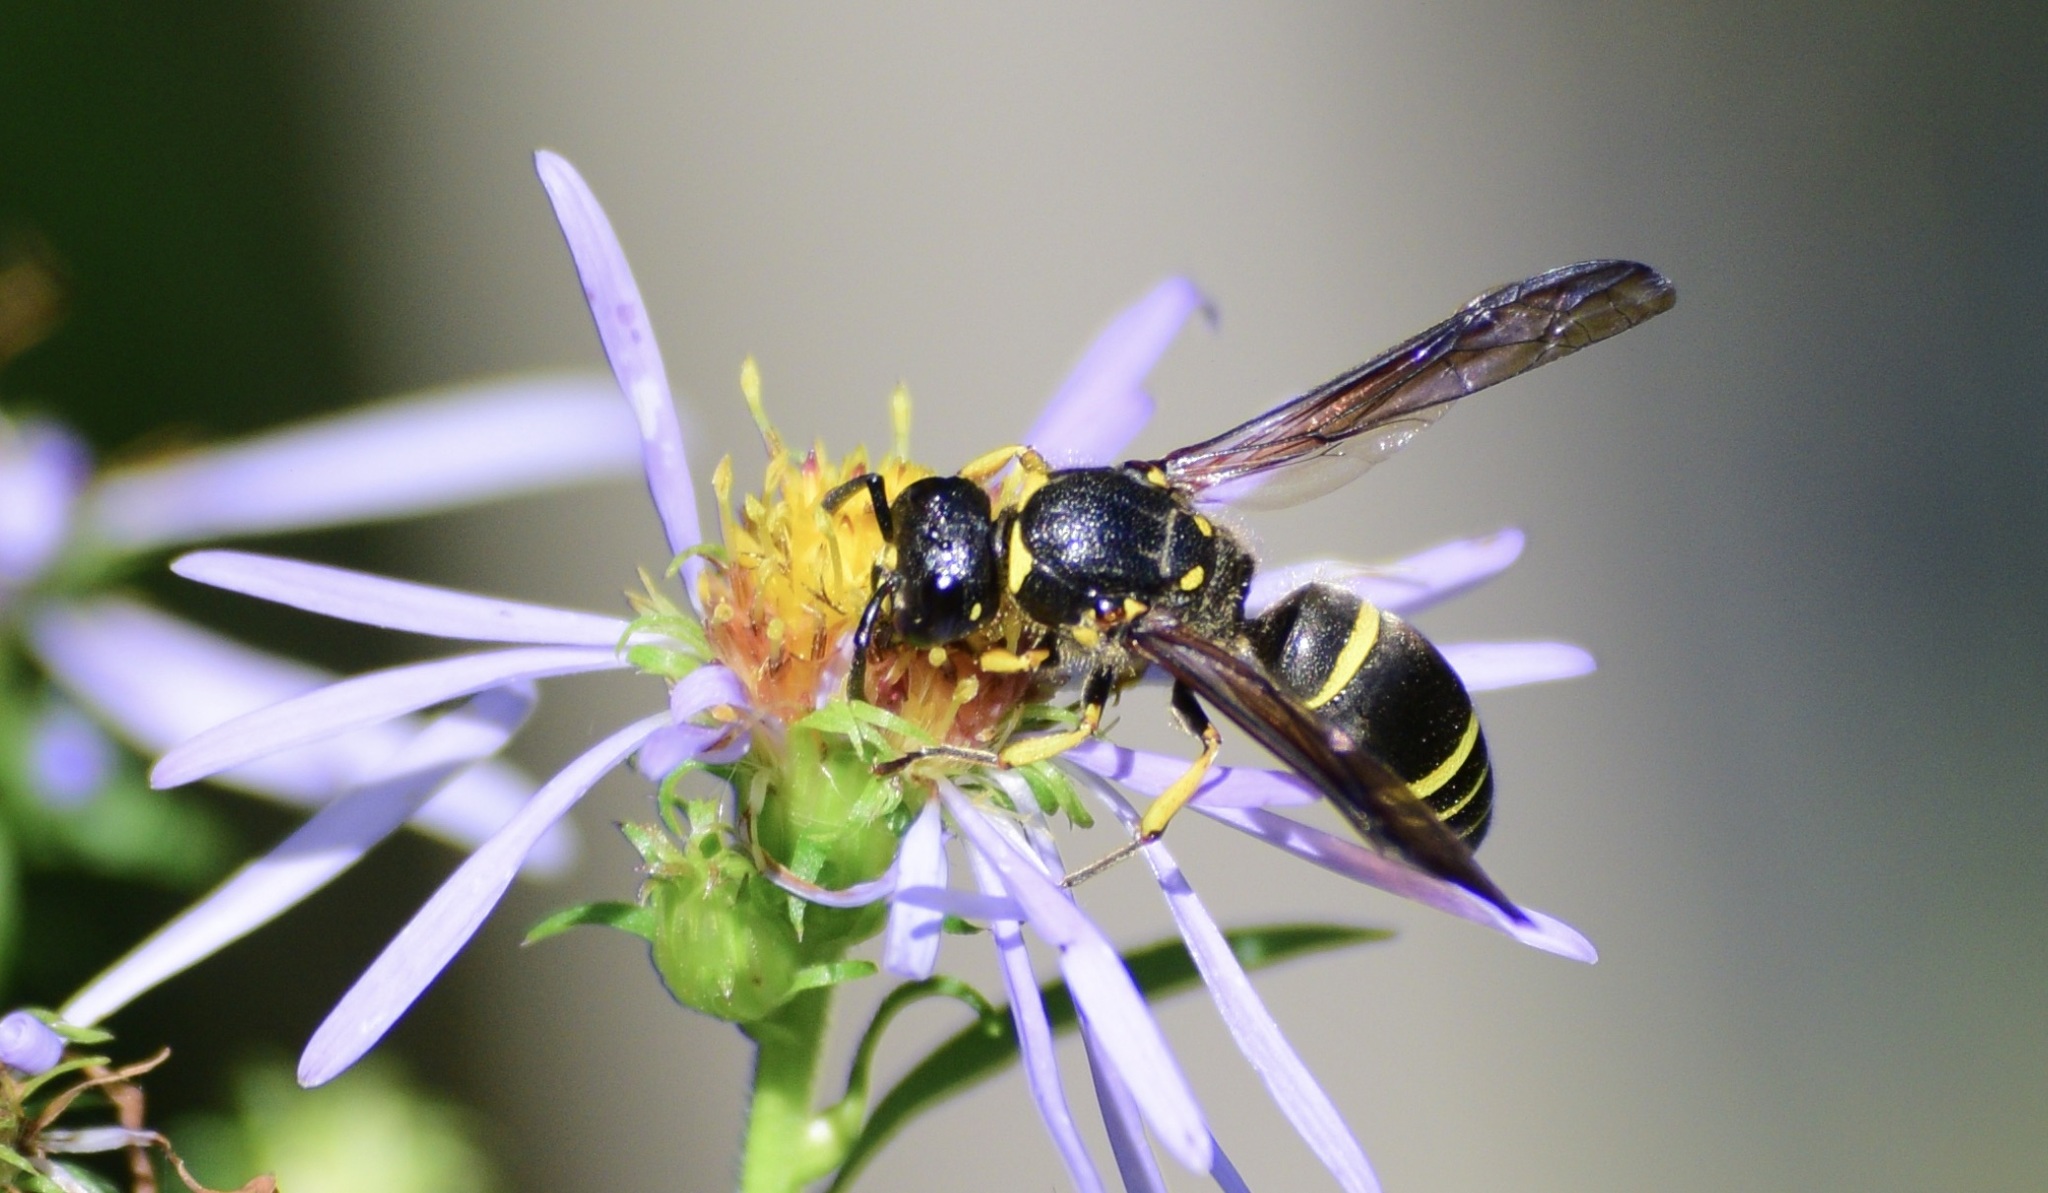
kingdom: Animalia
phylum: Arthropoda
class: Insecta
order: Hymenoptera
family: Vespidae
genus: Ancistrocerus
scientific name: Ancistrocerus
